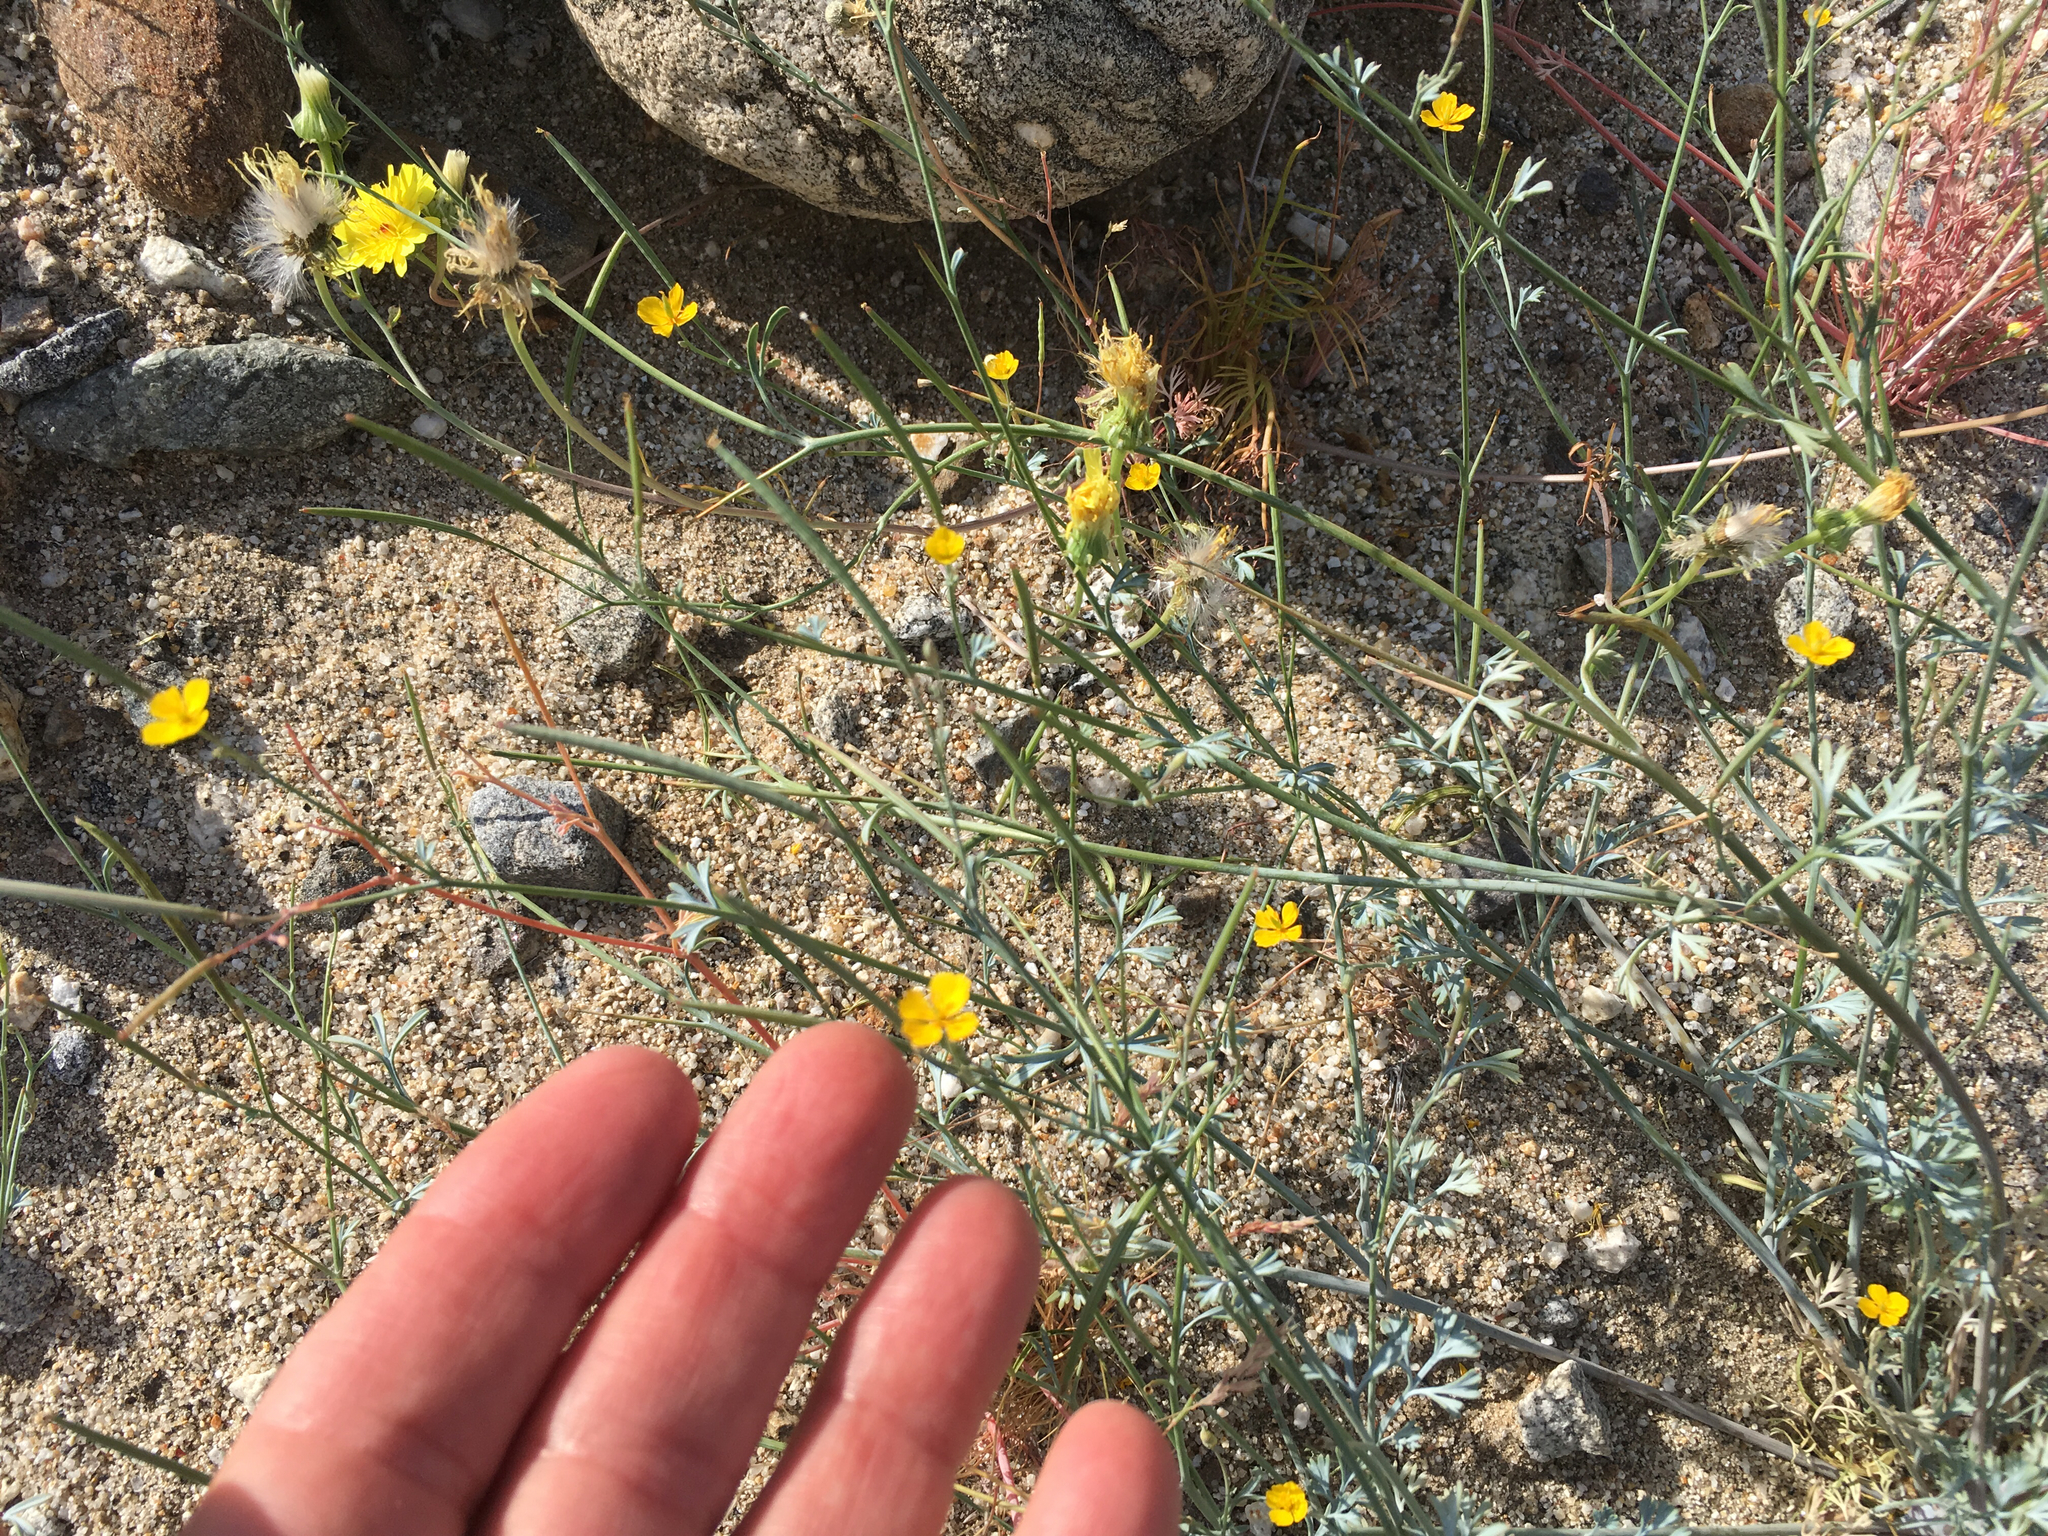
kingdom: Plantae
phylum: Tracheophyta
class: Magnoliopsida
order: Ranunculales
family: Papaveraceae
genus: Eschscholzia
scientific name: Eschscholzia minutiflora
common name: Small-flower california-poppy
